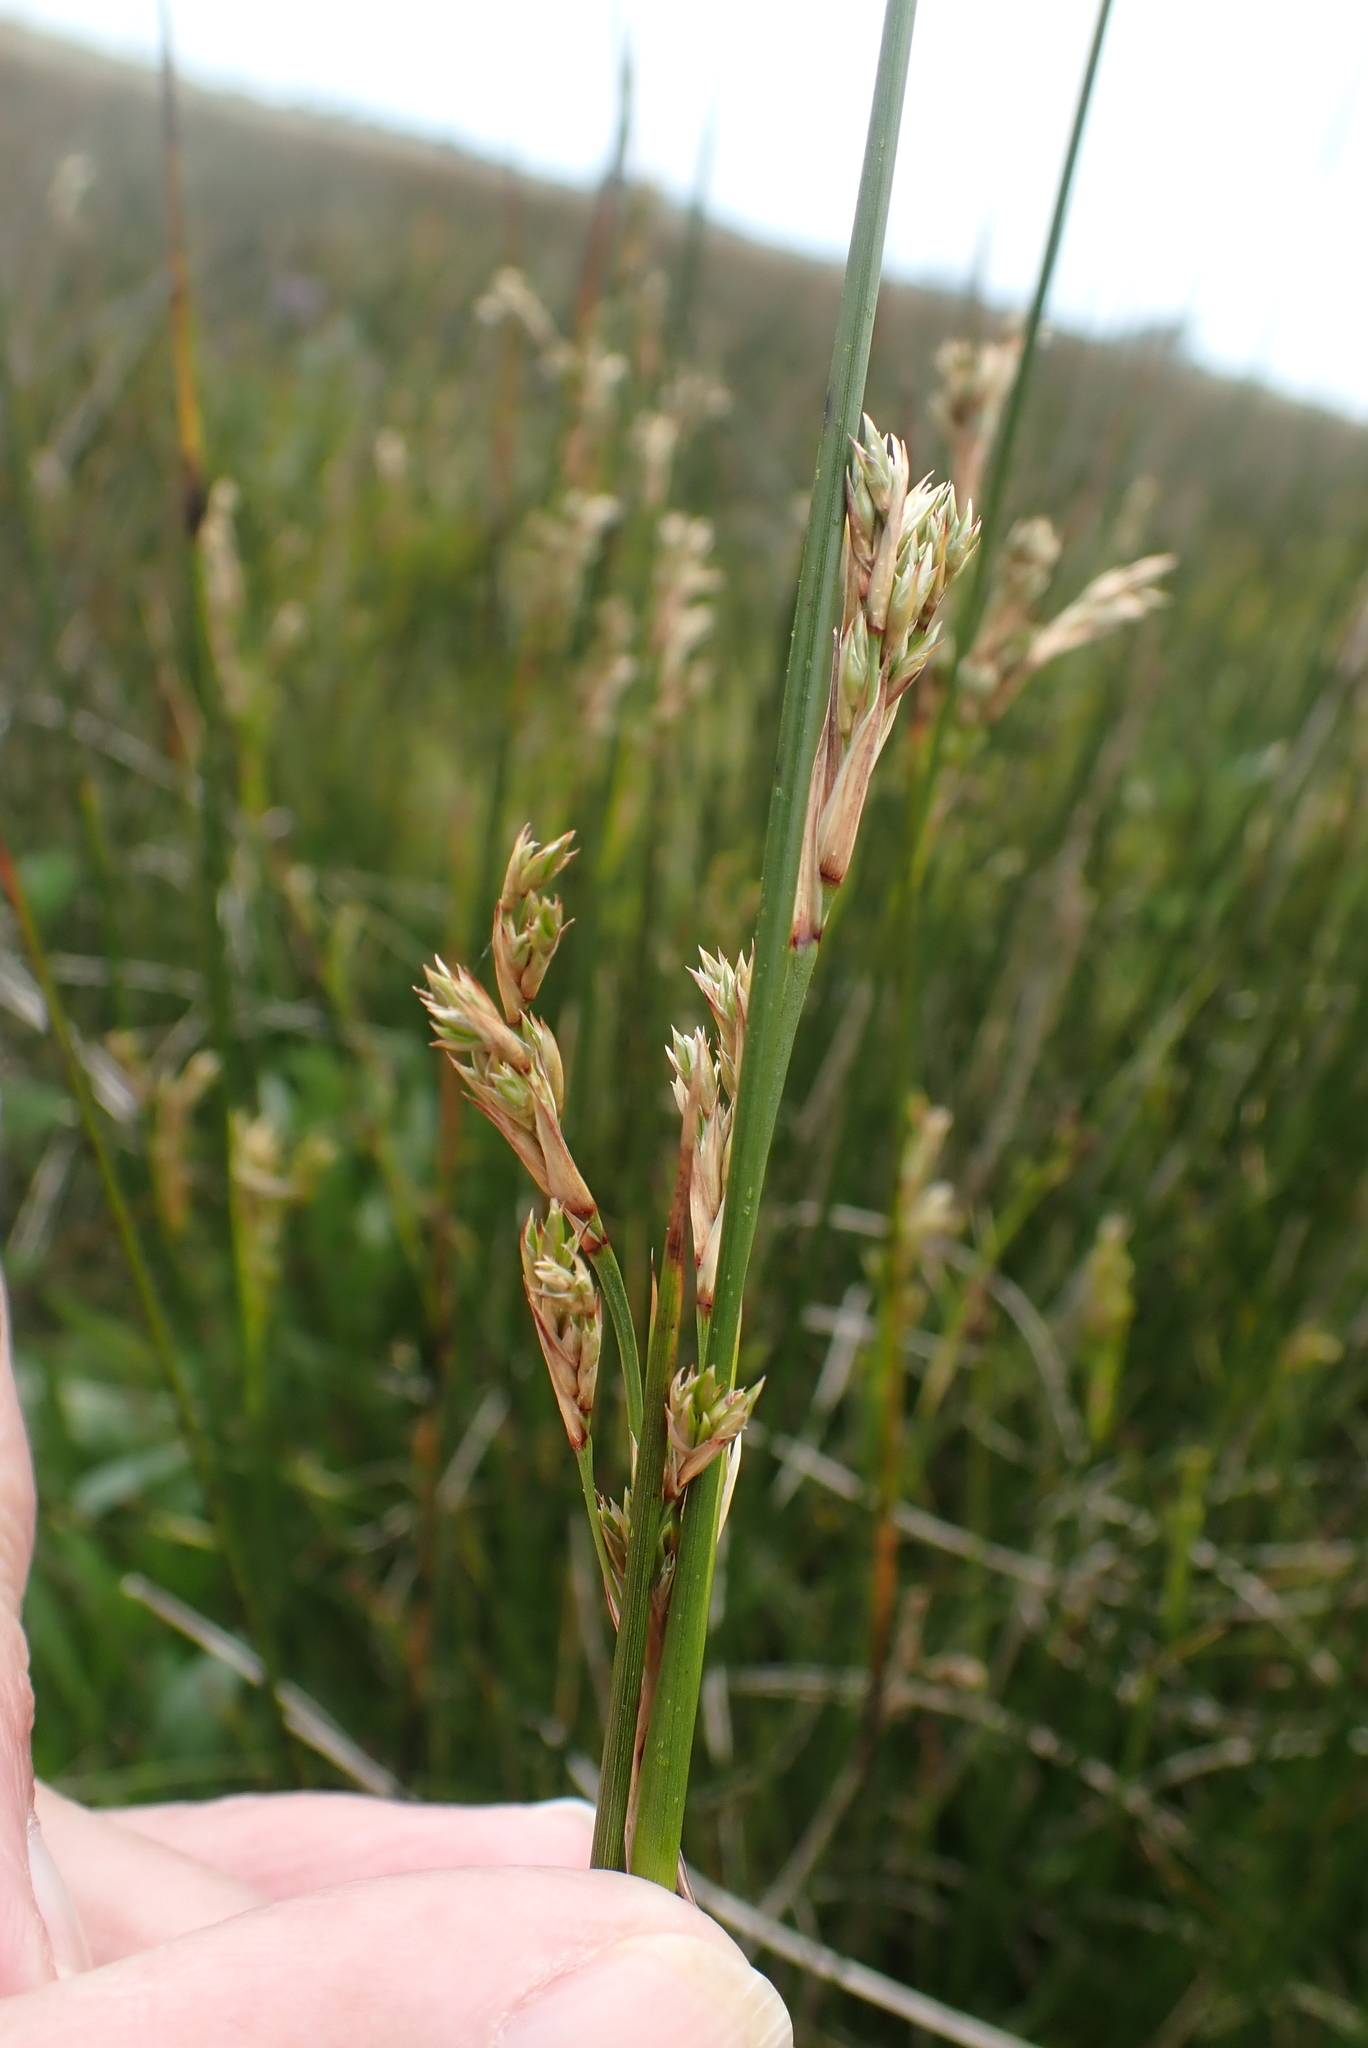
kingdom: Plantae
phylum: Tracheophyta
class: Liliopsida
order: Poales
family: Juncaceae
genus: Juncus
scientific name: Juncus maritimus
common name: Sea rush
